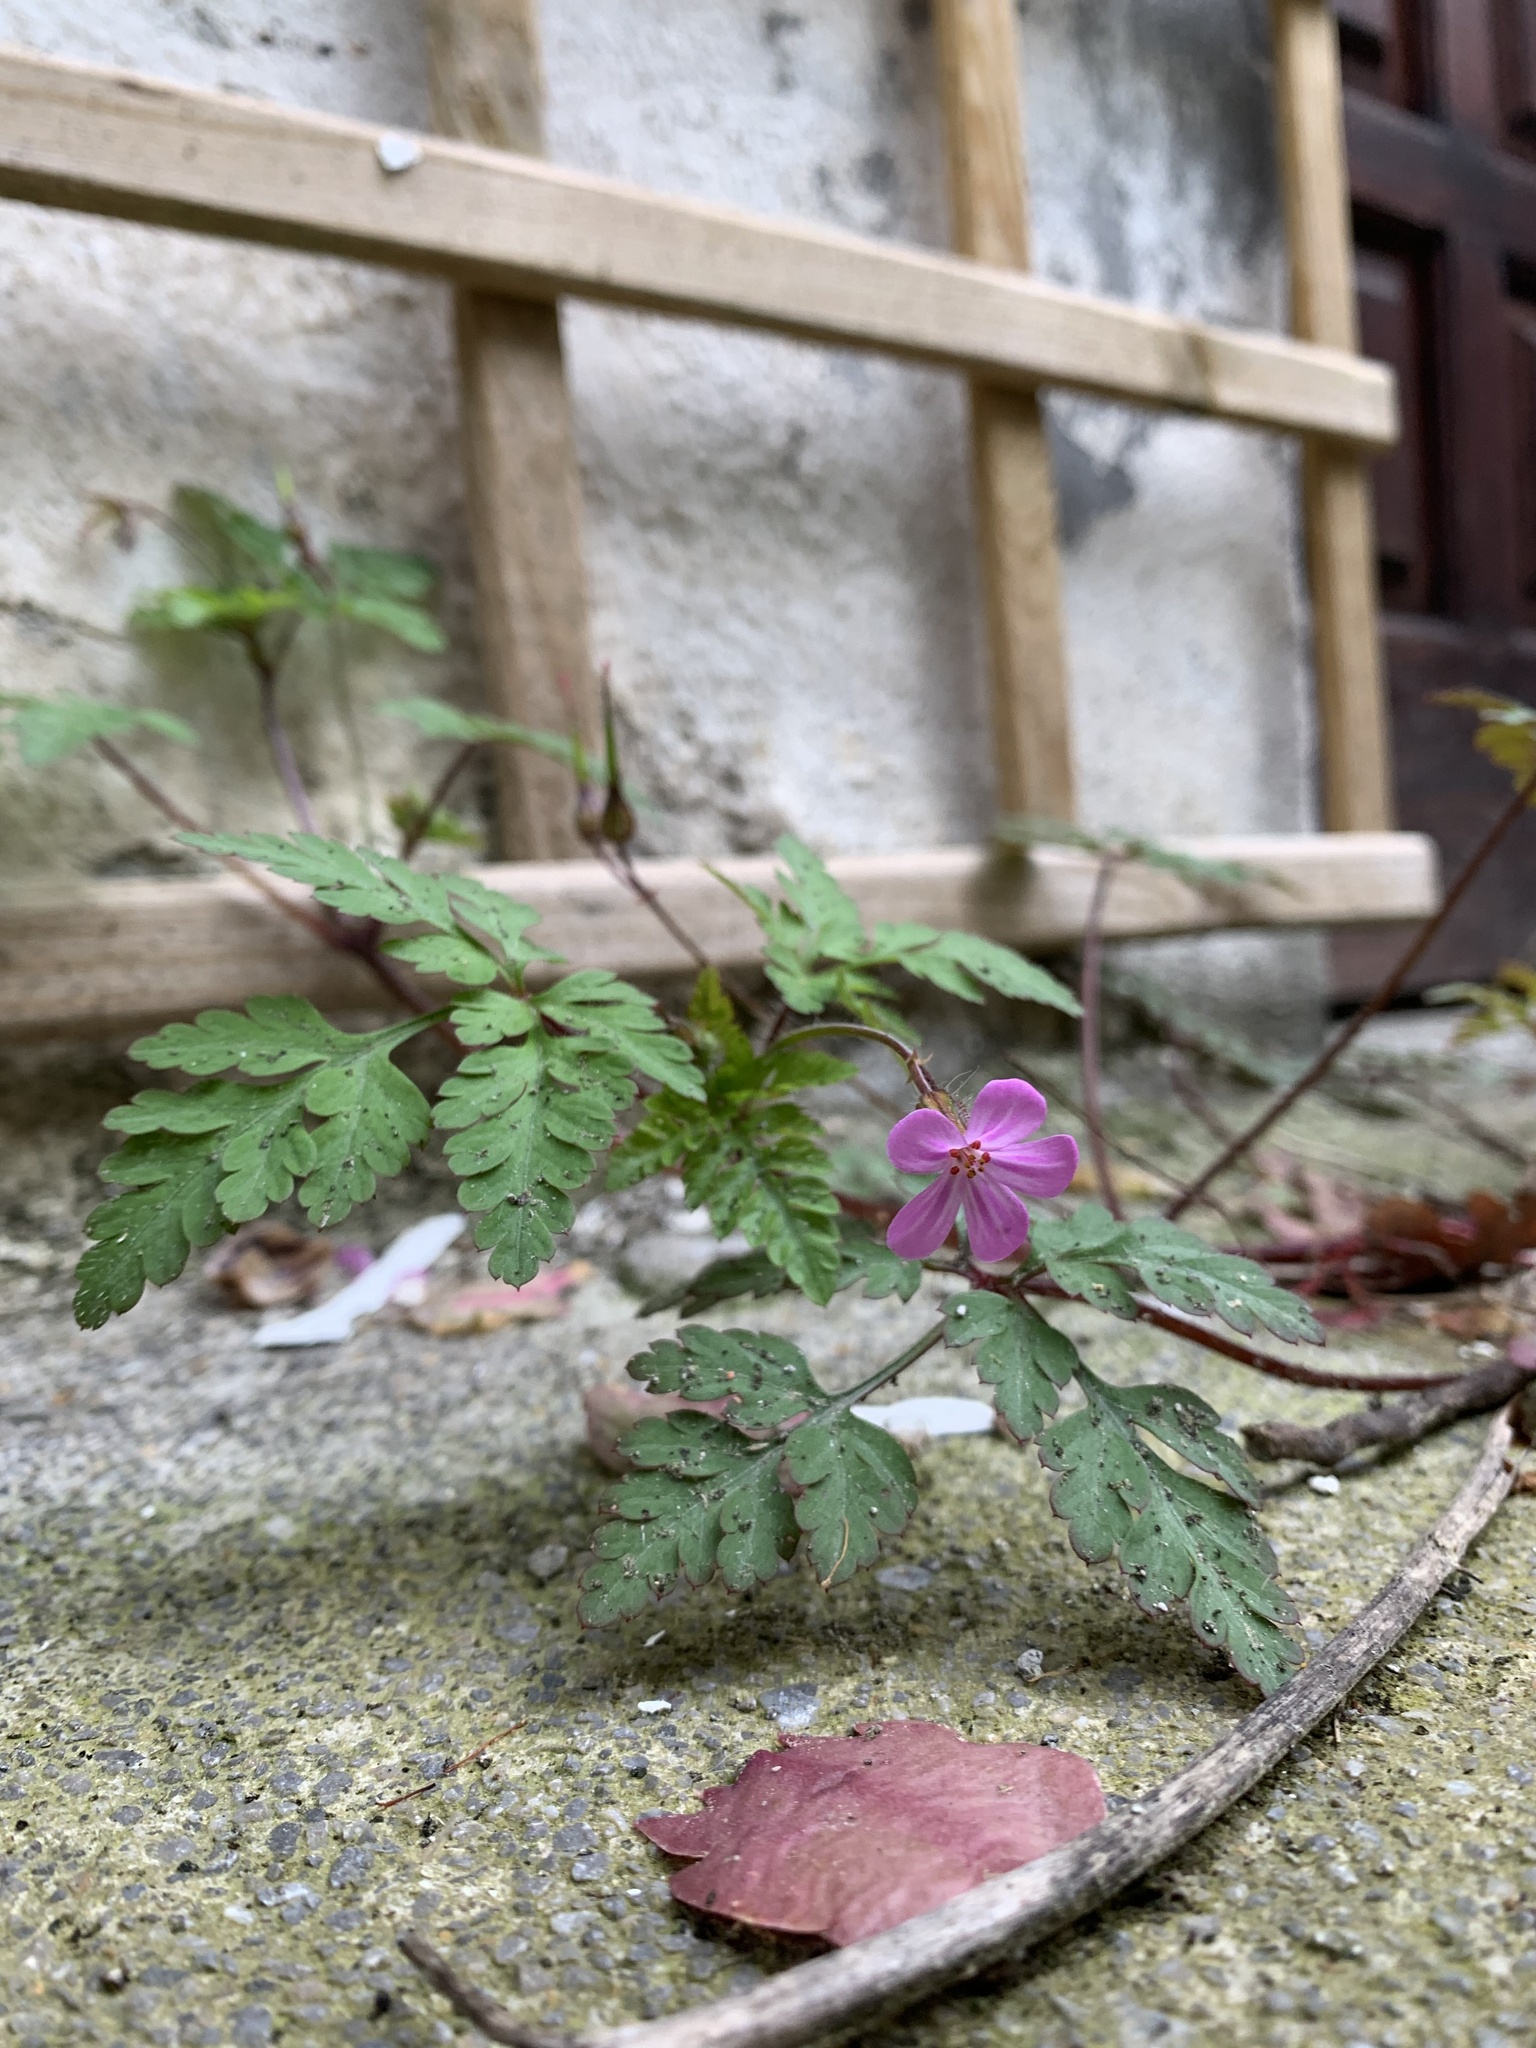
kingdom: Plantae
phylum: Tracheophyta
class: Magnoliopsida
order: Geraniales
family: Geraniaceae
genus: Geranium
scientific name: Geranium purpureum
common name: Little-robin
